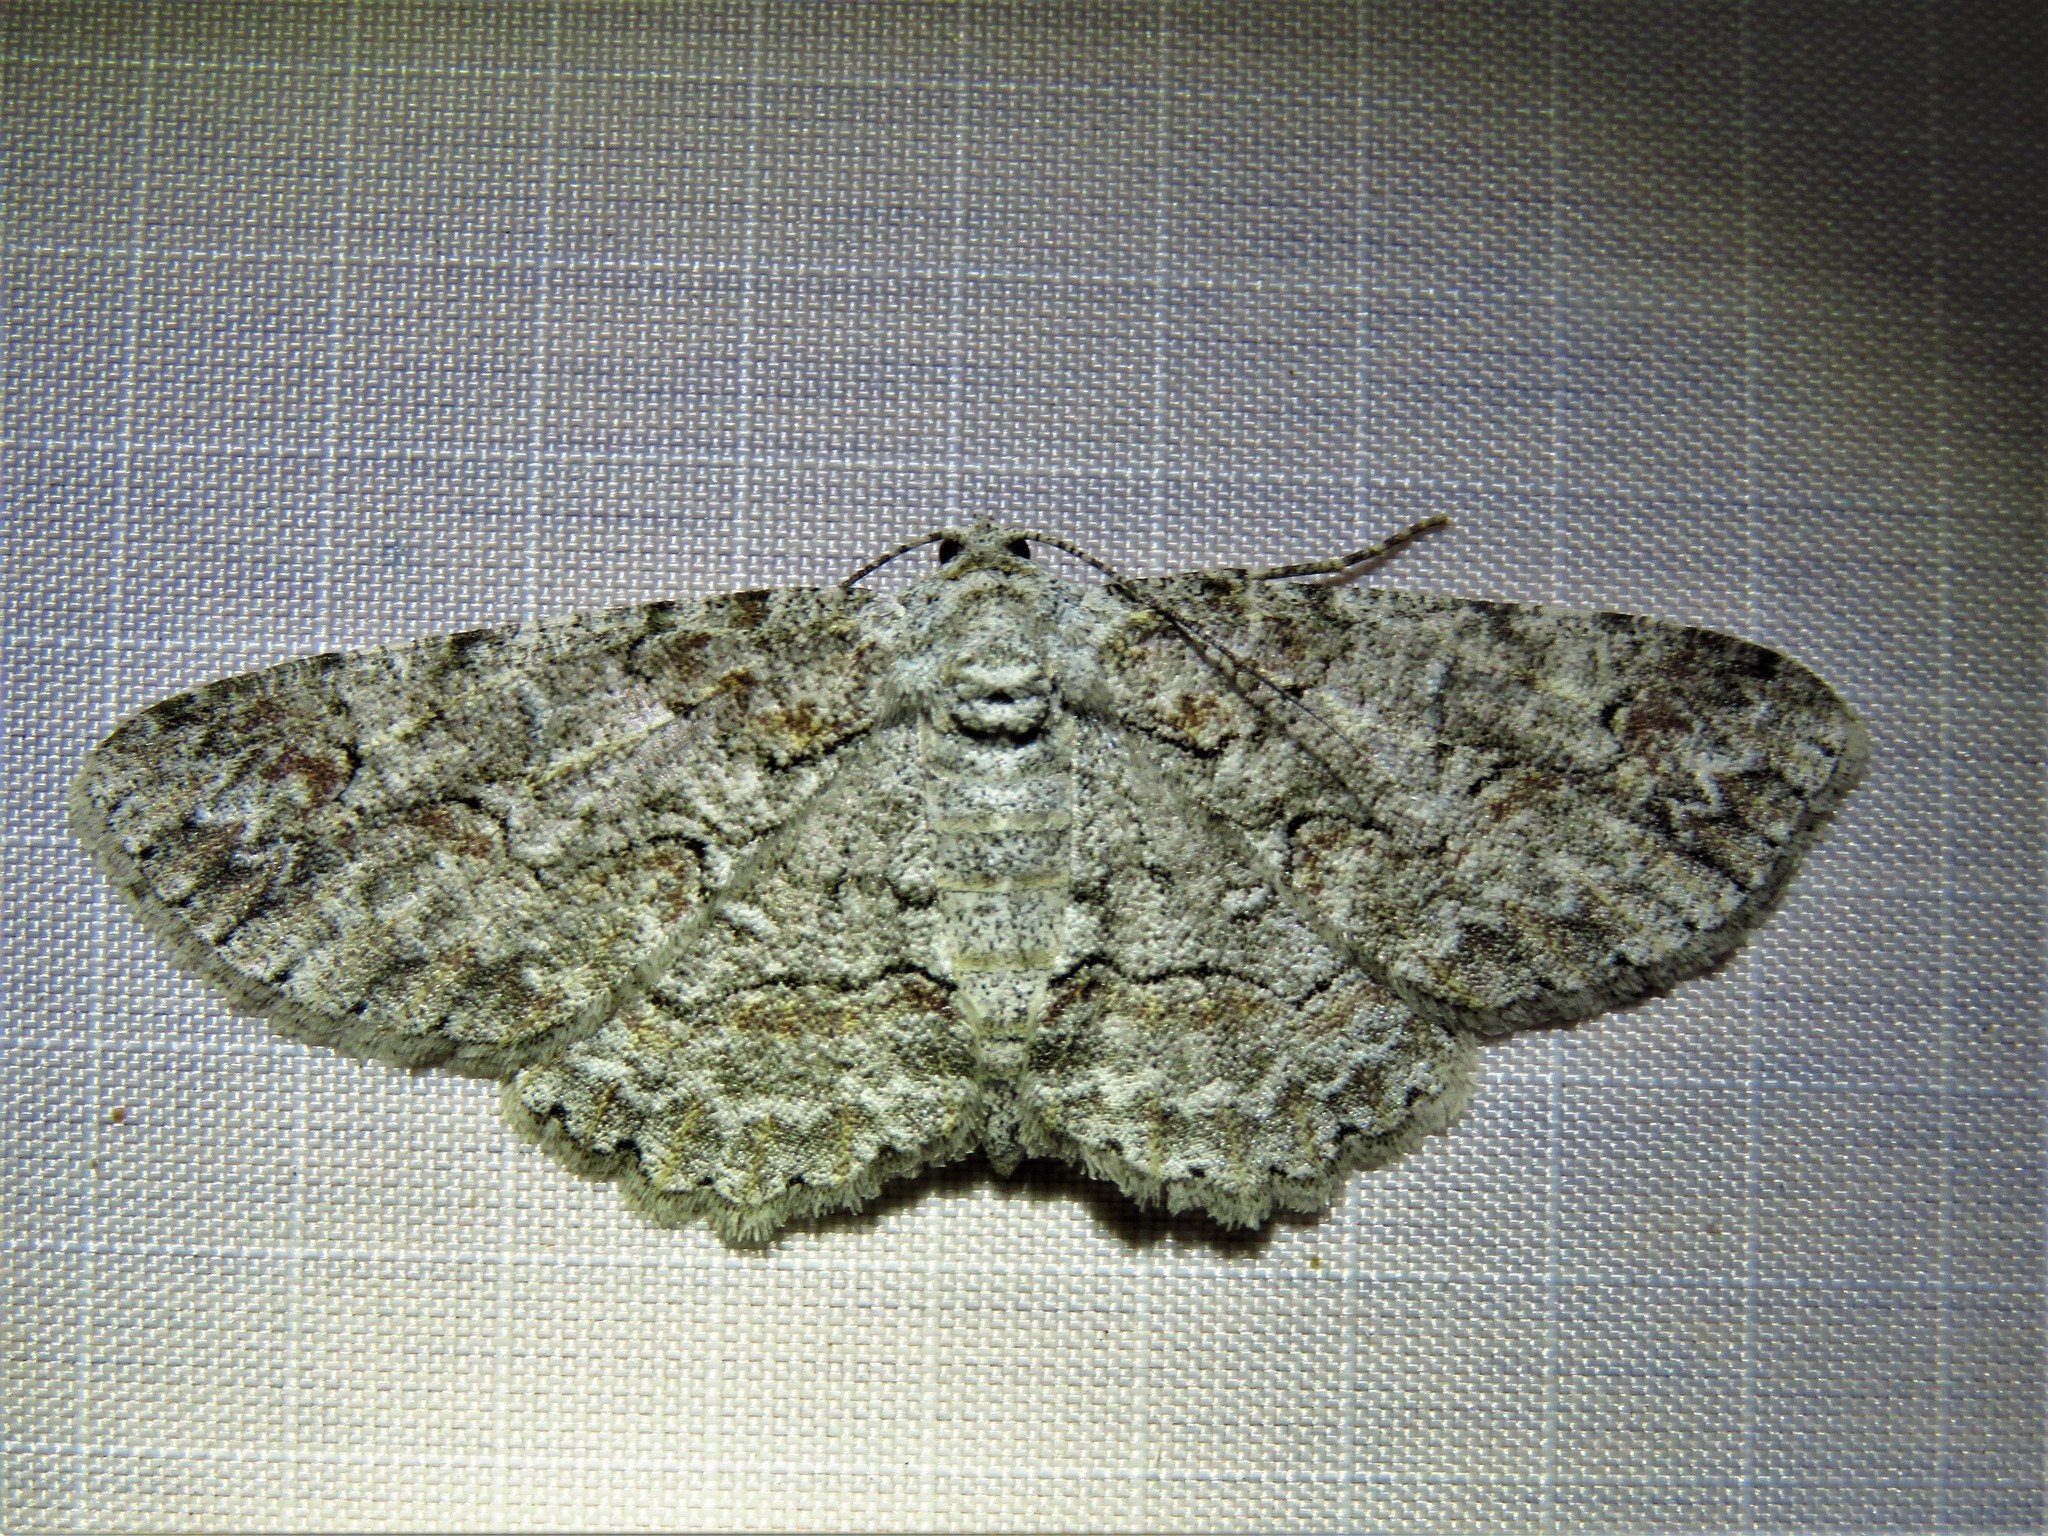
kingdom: Animalia
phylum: Arthropoda
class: Insecta
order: Lepidoptera
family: Geometridae
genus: Iridopsis
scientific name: Iridopsis defectaria
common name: Brown-shaded gray
